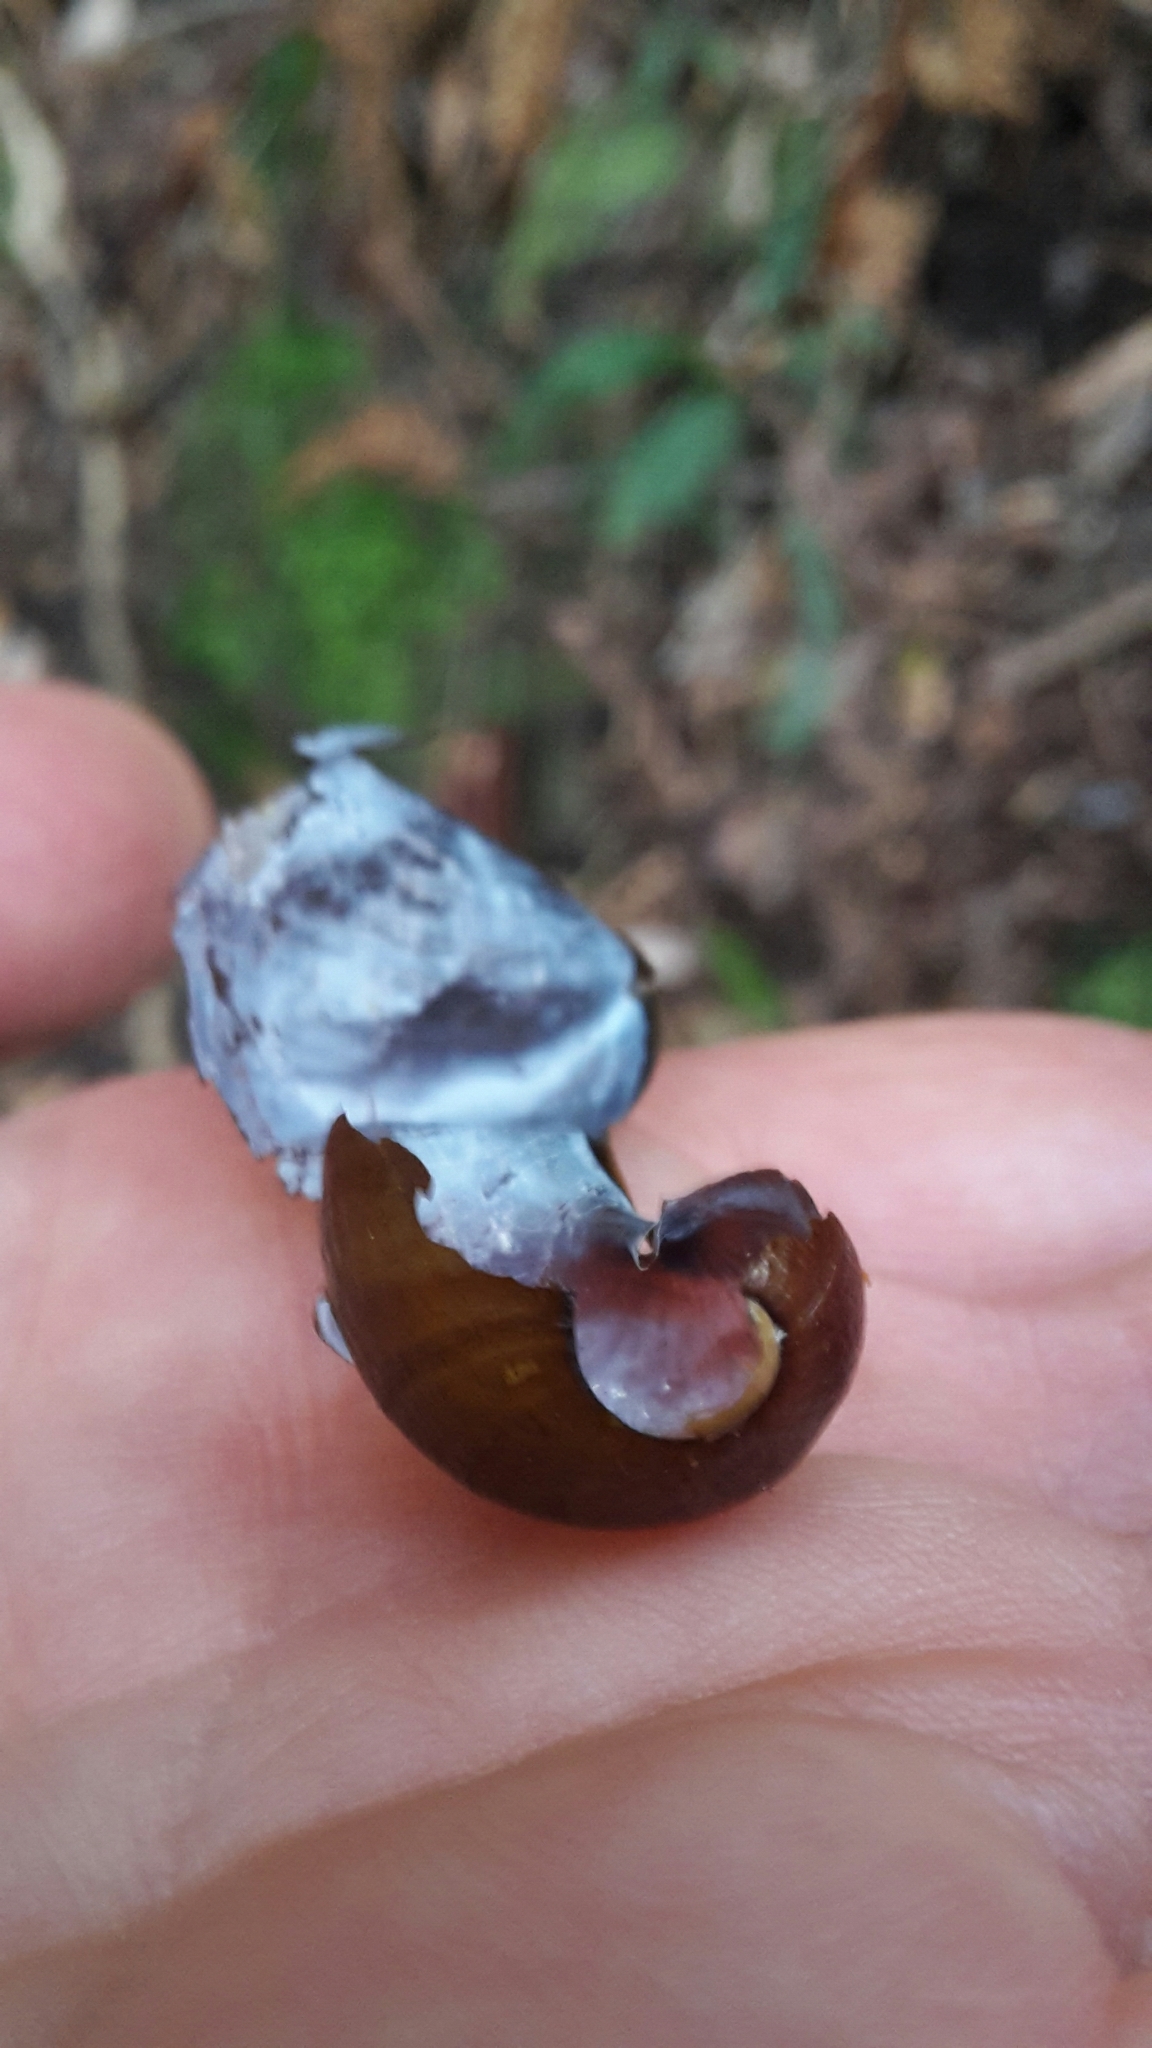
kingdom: Animalia
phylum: Mollusca
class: Gastropoda
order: Stylommatophora
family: Rhytididae
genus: Wainuia
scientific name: Wainuia urnula
